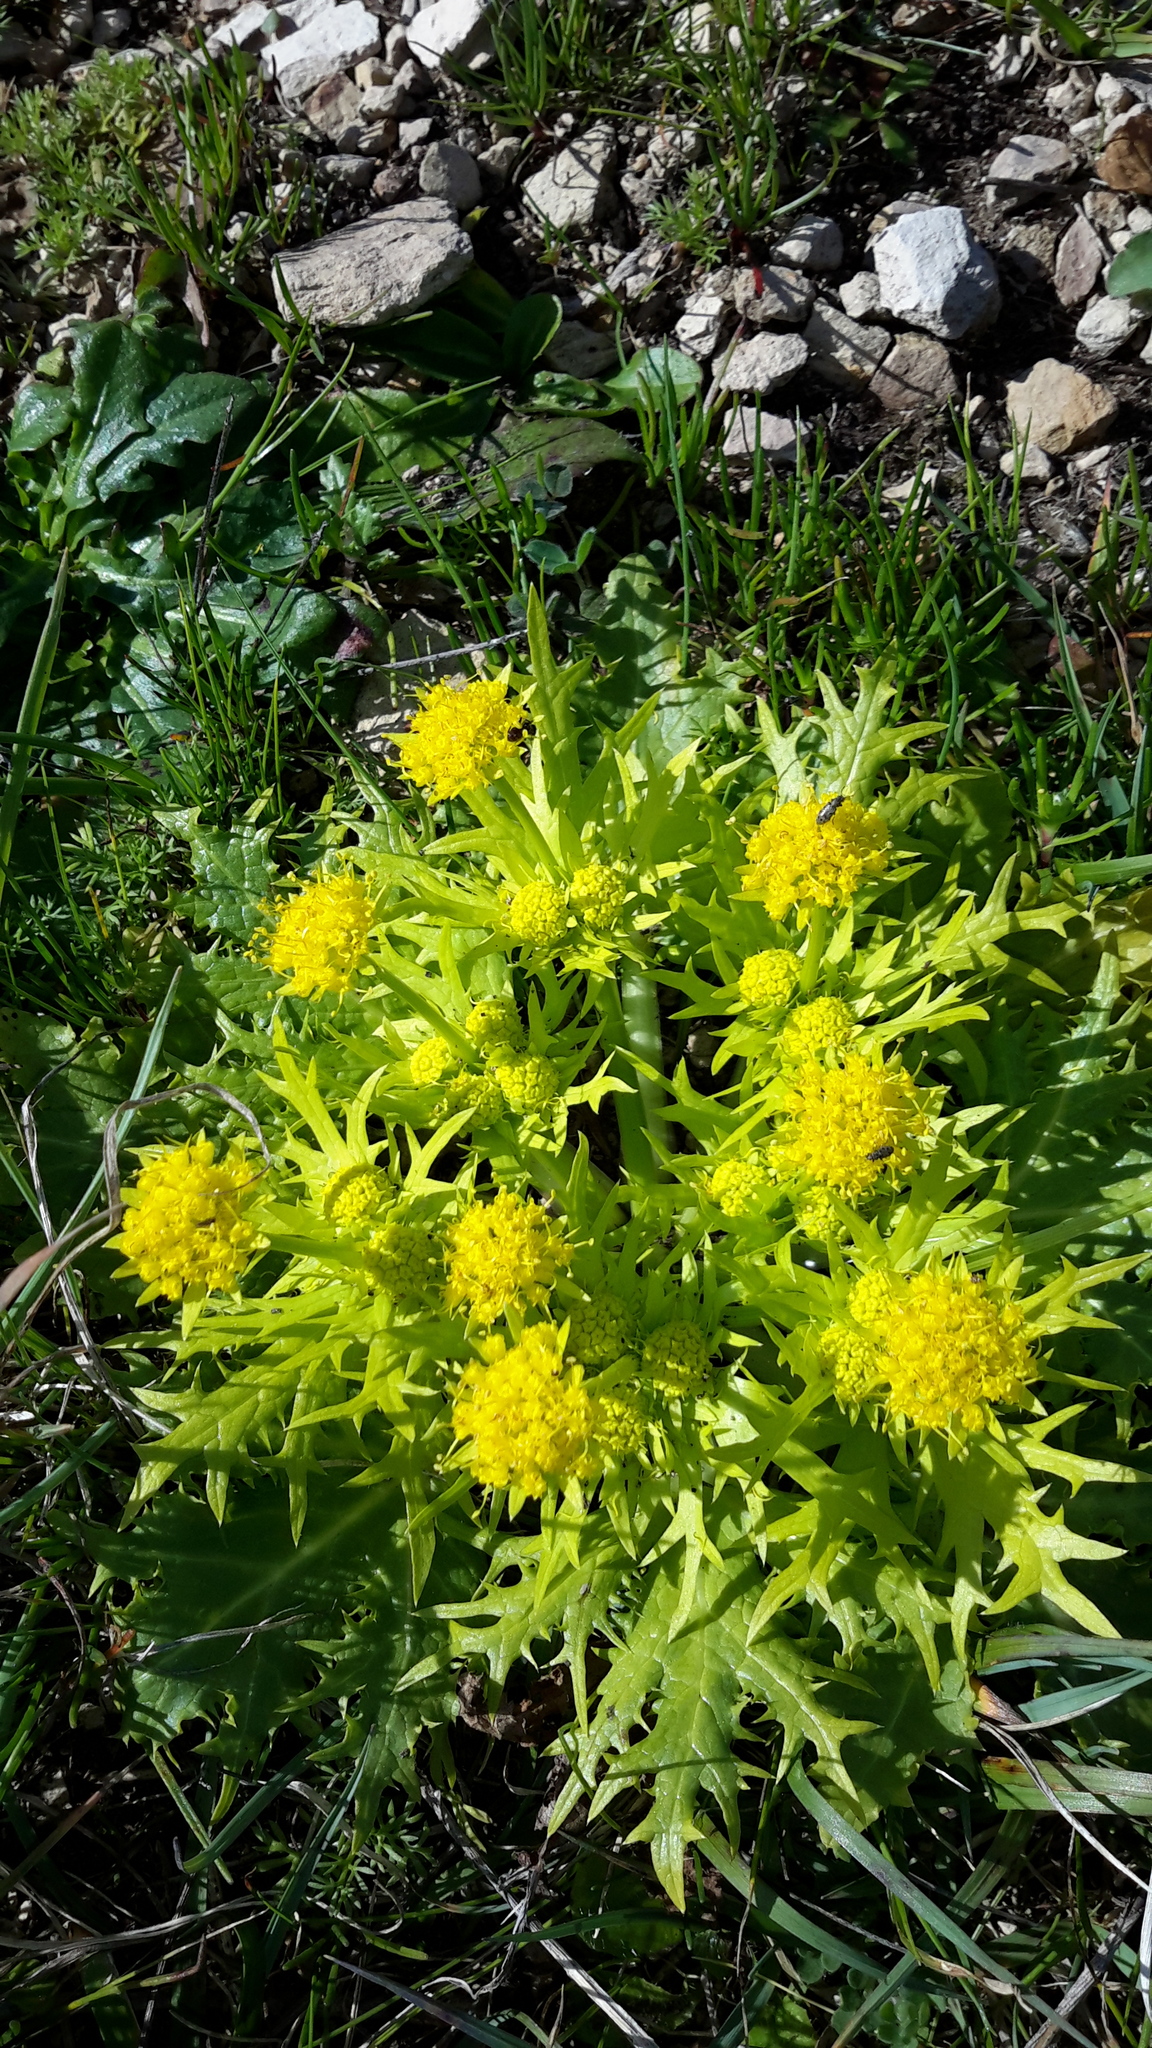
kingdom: Plantae
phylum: Tracheophyta
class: Magnoliopsida
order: Apiales
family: Apiaceae
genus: Sanicula
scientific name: Sanicula arctopoides
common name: Footsteps-of-spring
